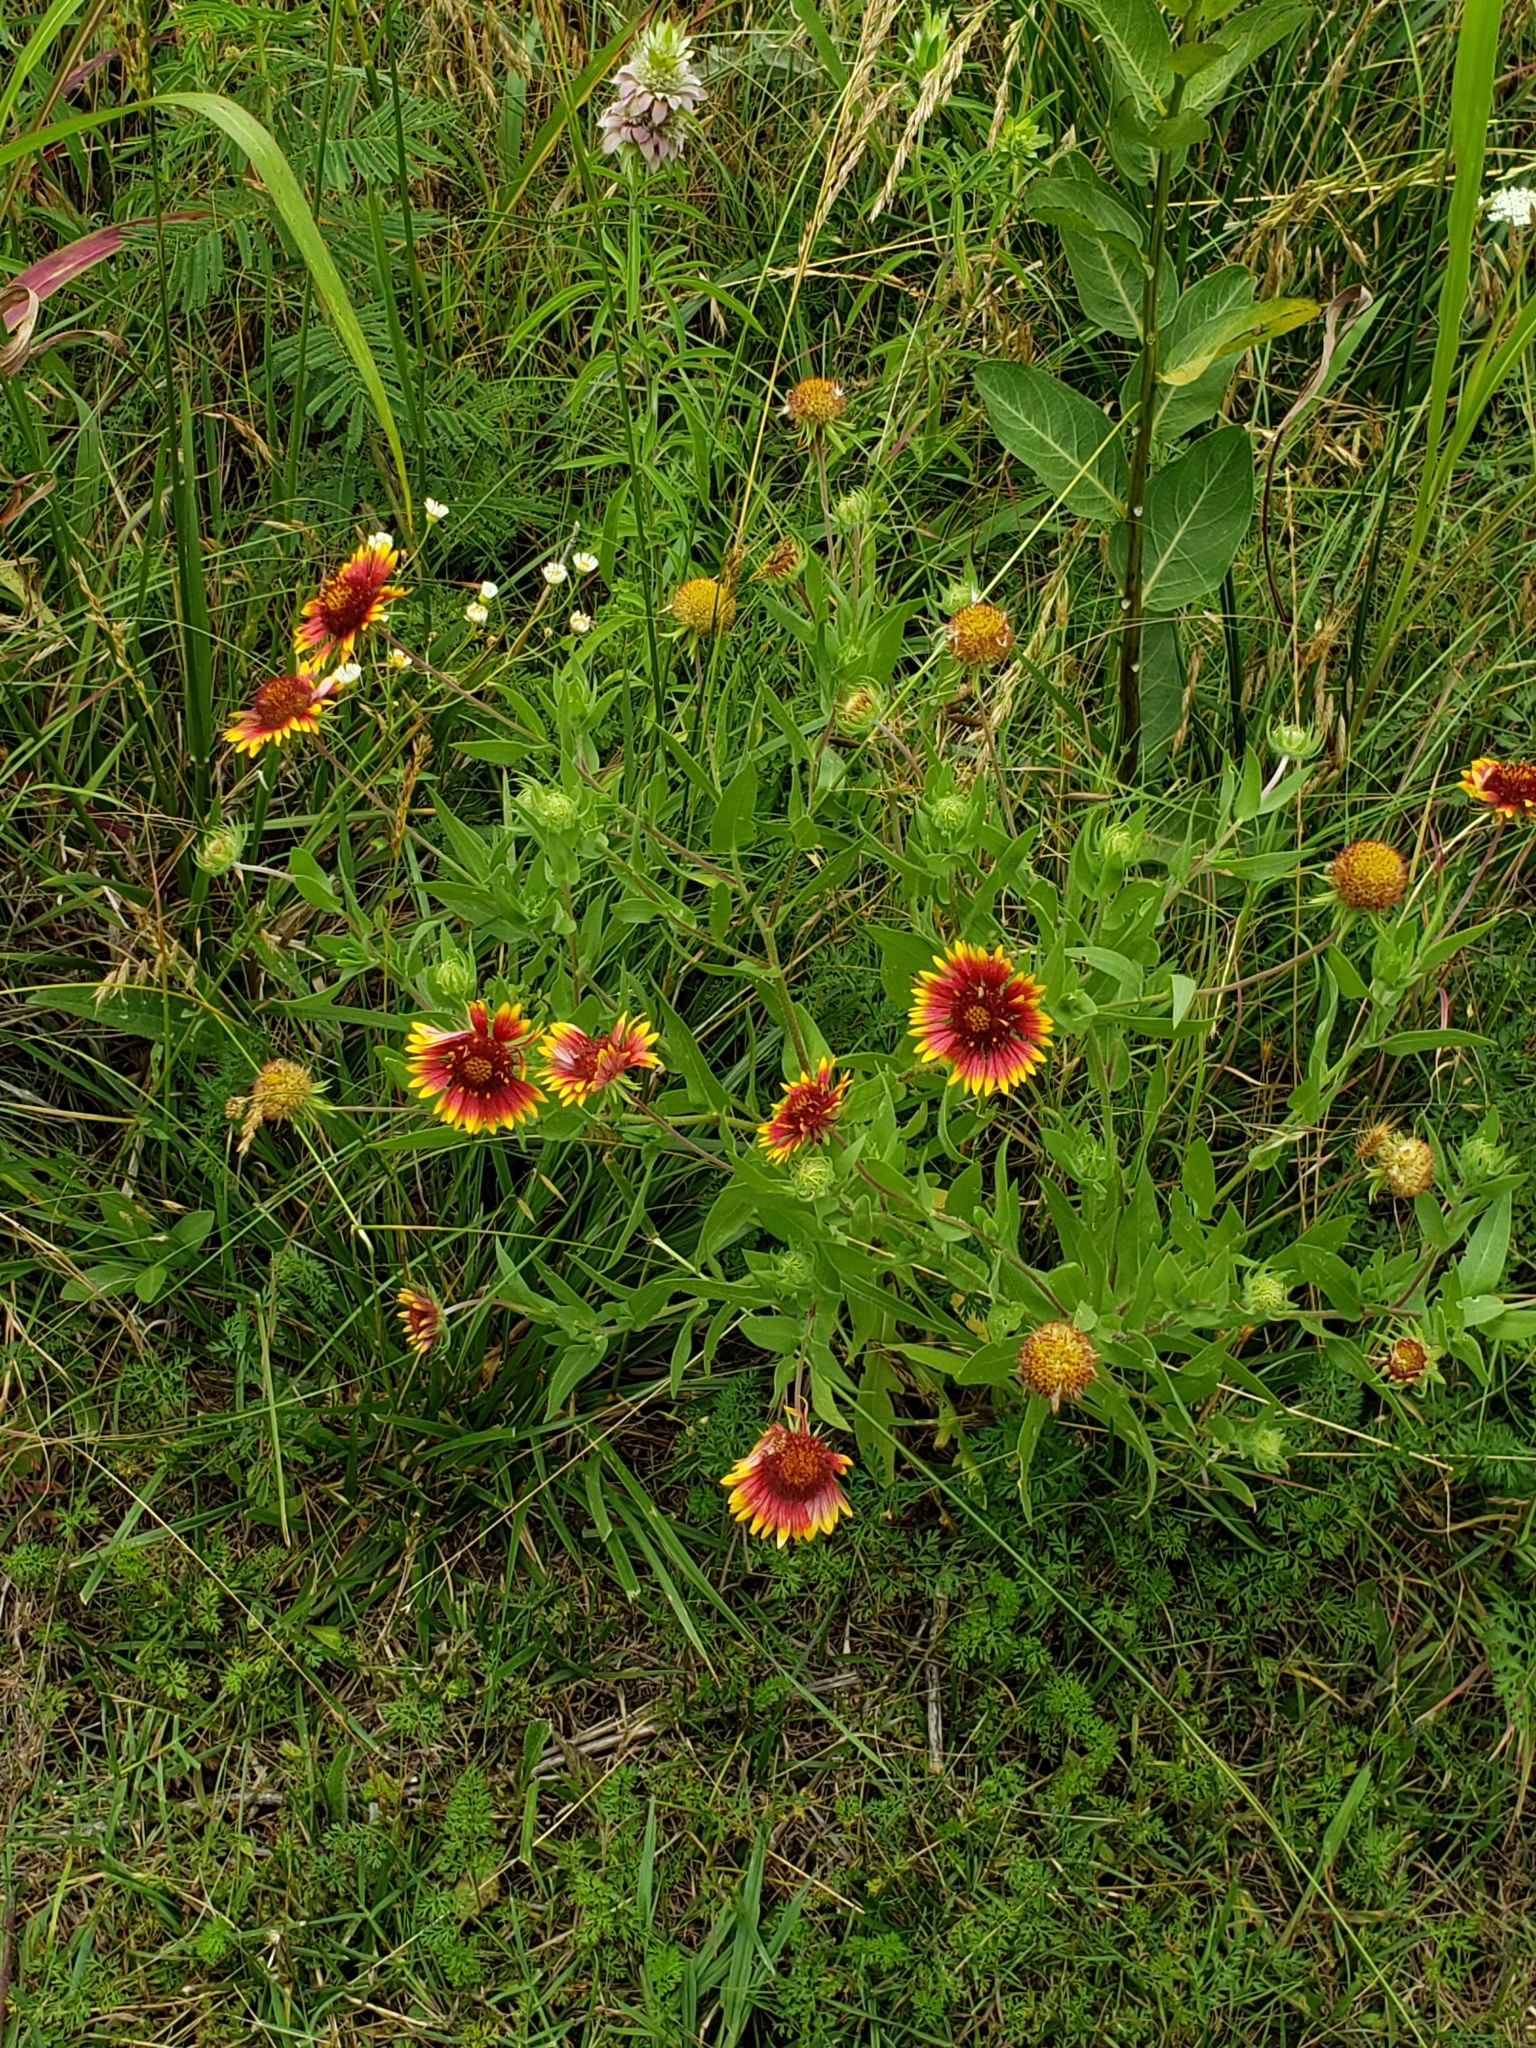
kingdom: Plantae
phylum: Tracheophyta
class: Magnoliopsida
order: Asterales
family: Asteraceae
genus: Gaillardia
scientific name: Gaillardia pulchella
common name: Firewheel
